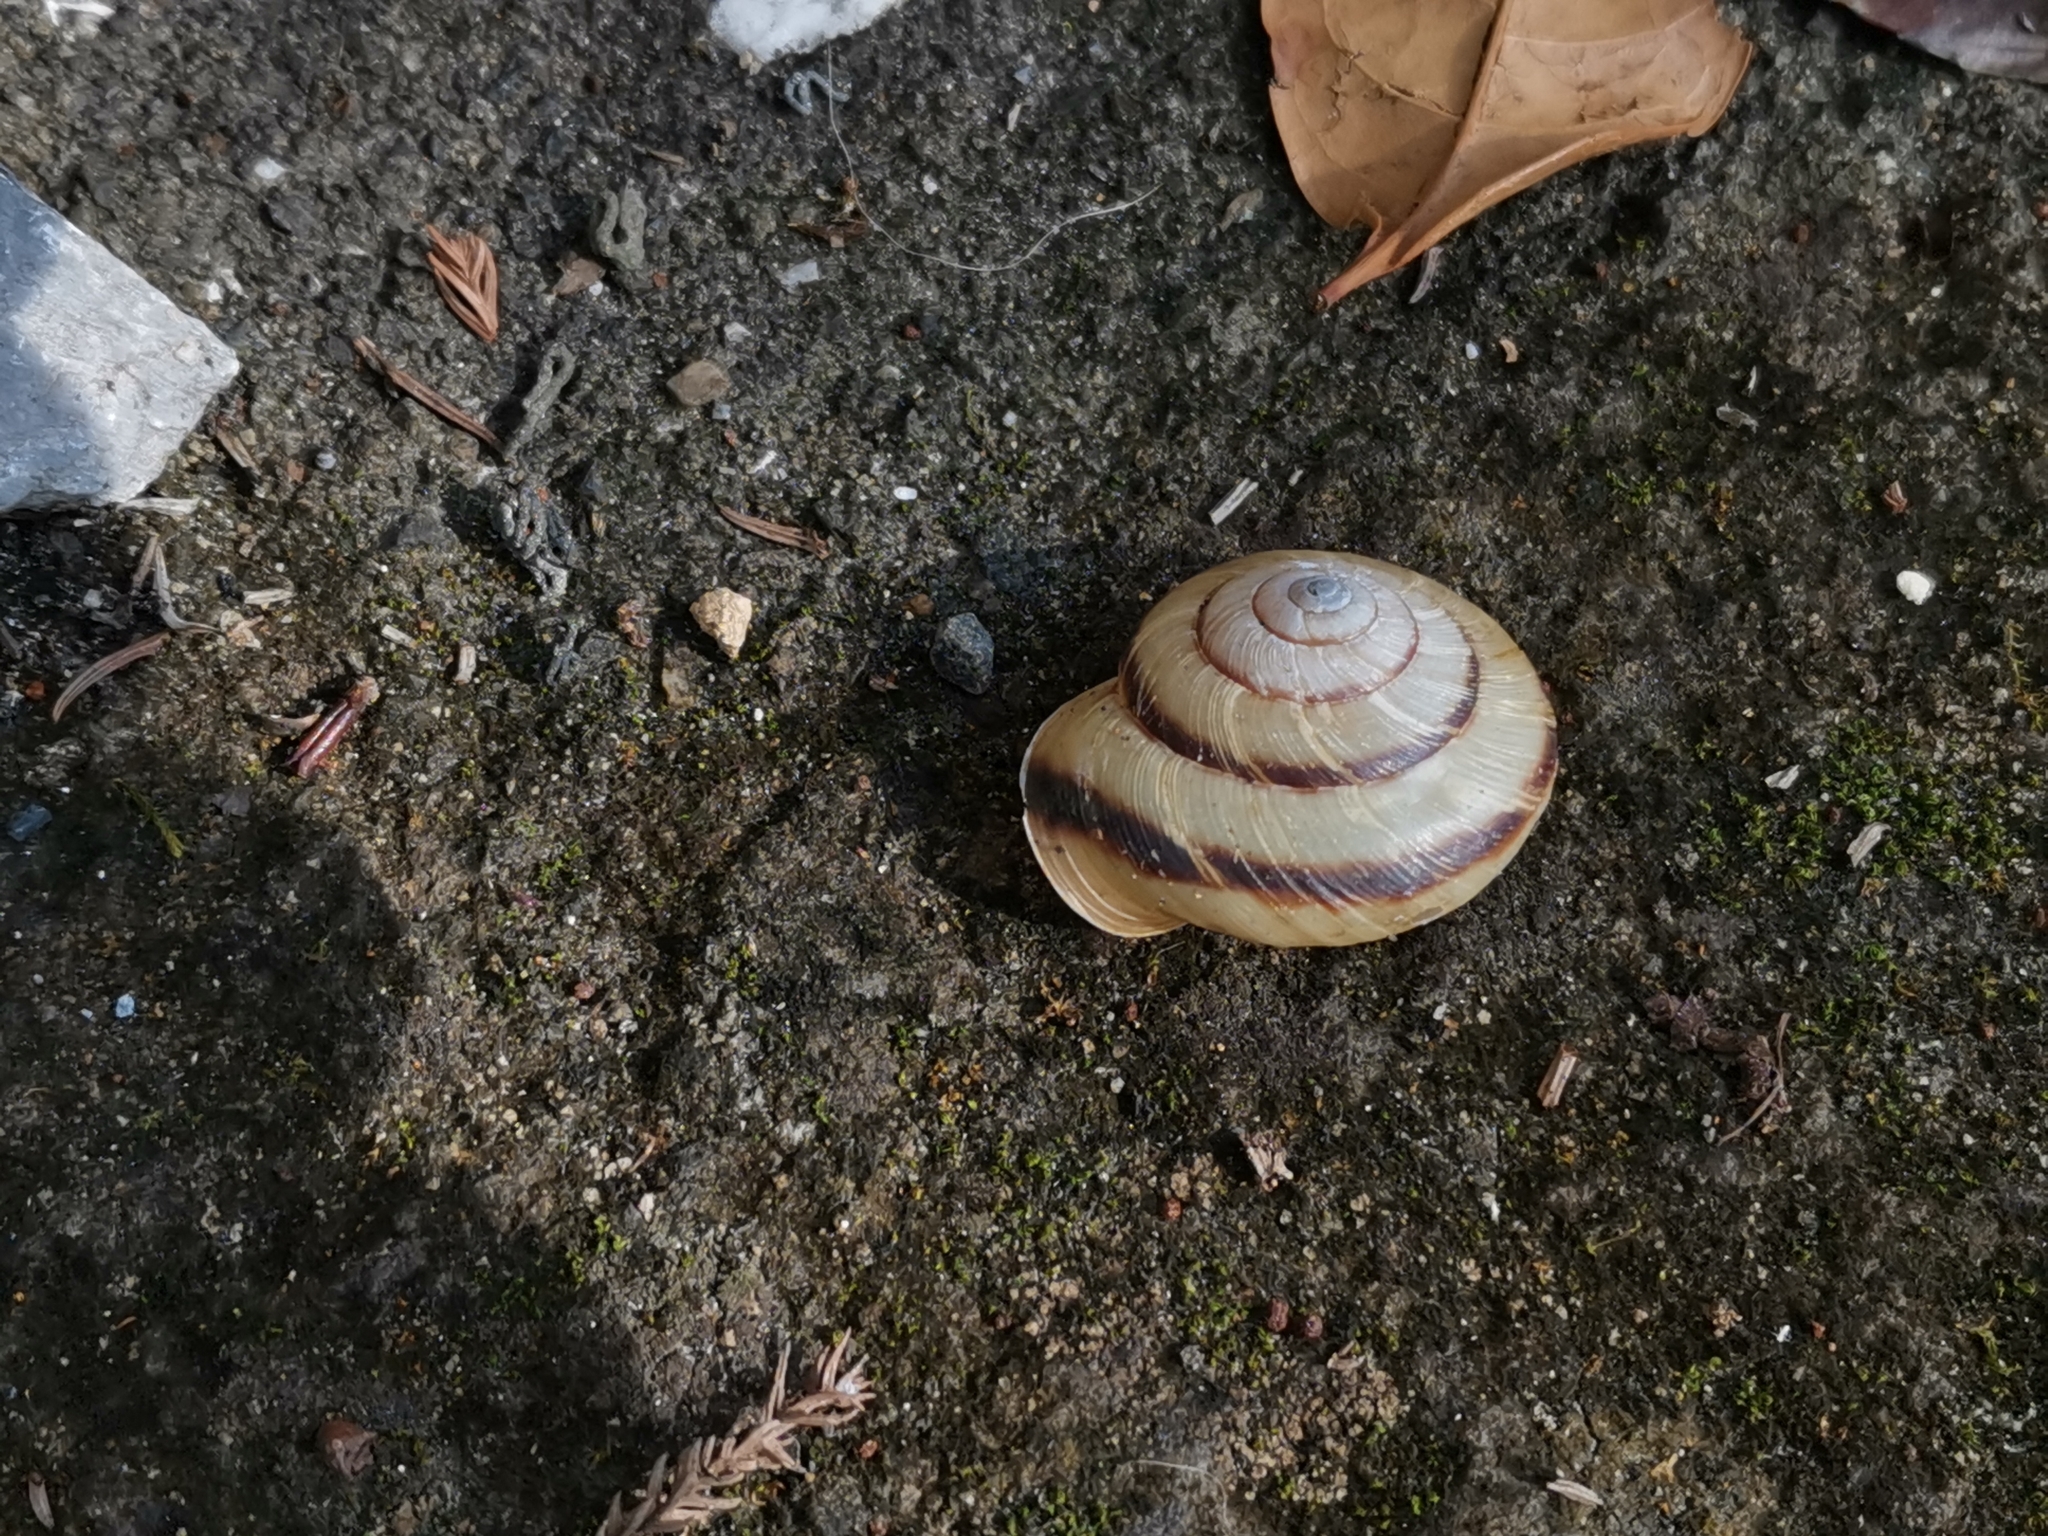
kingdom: Animalia
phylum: Mollusca
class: Gastropoda
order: Stylommatophora
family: Camaenidae
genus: Euhadra
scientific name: Euhadra subnimbosa
